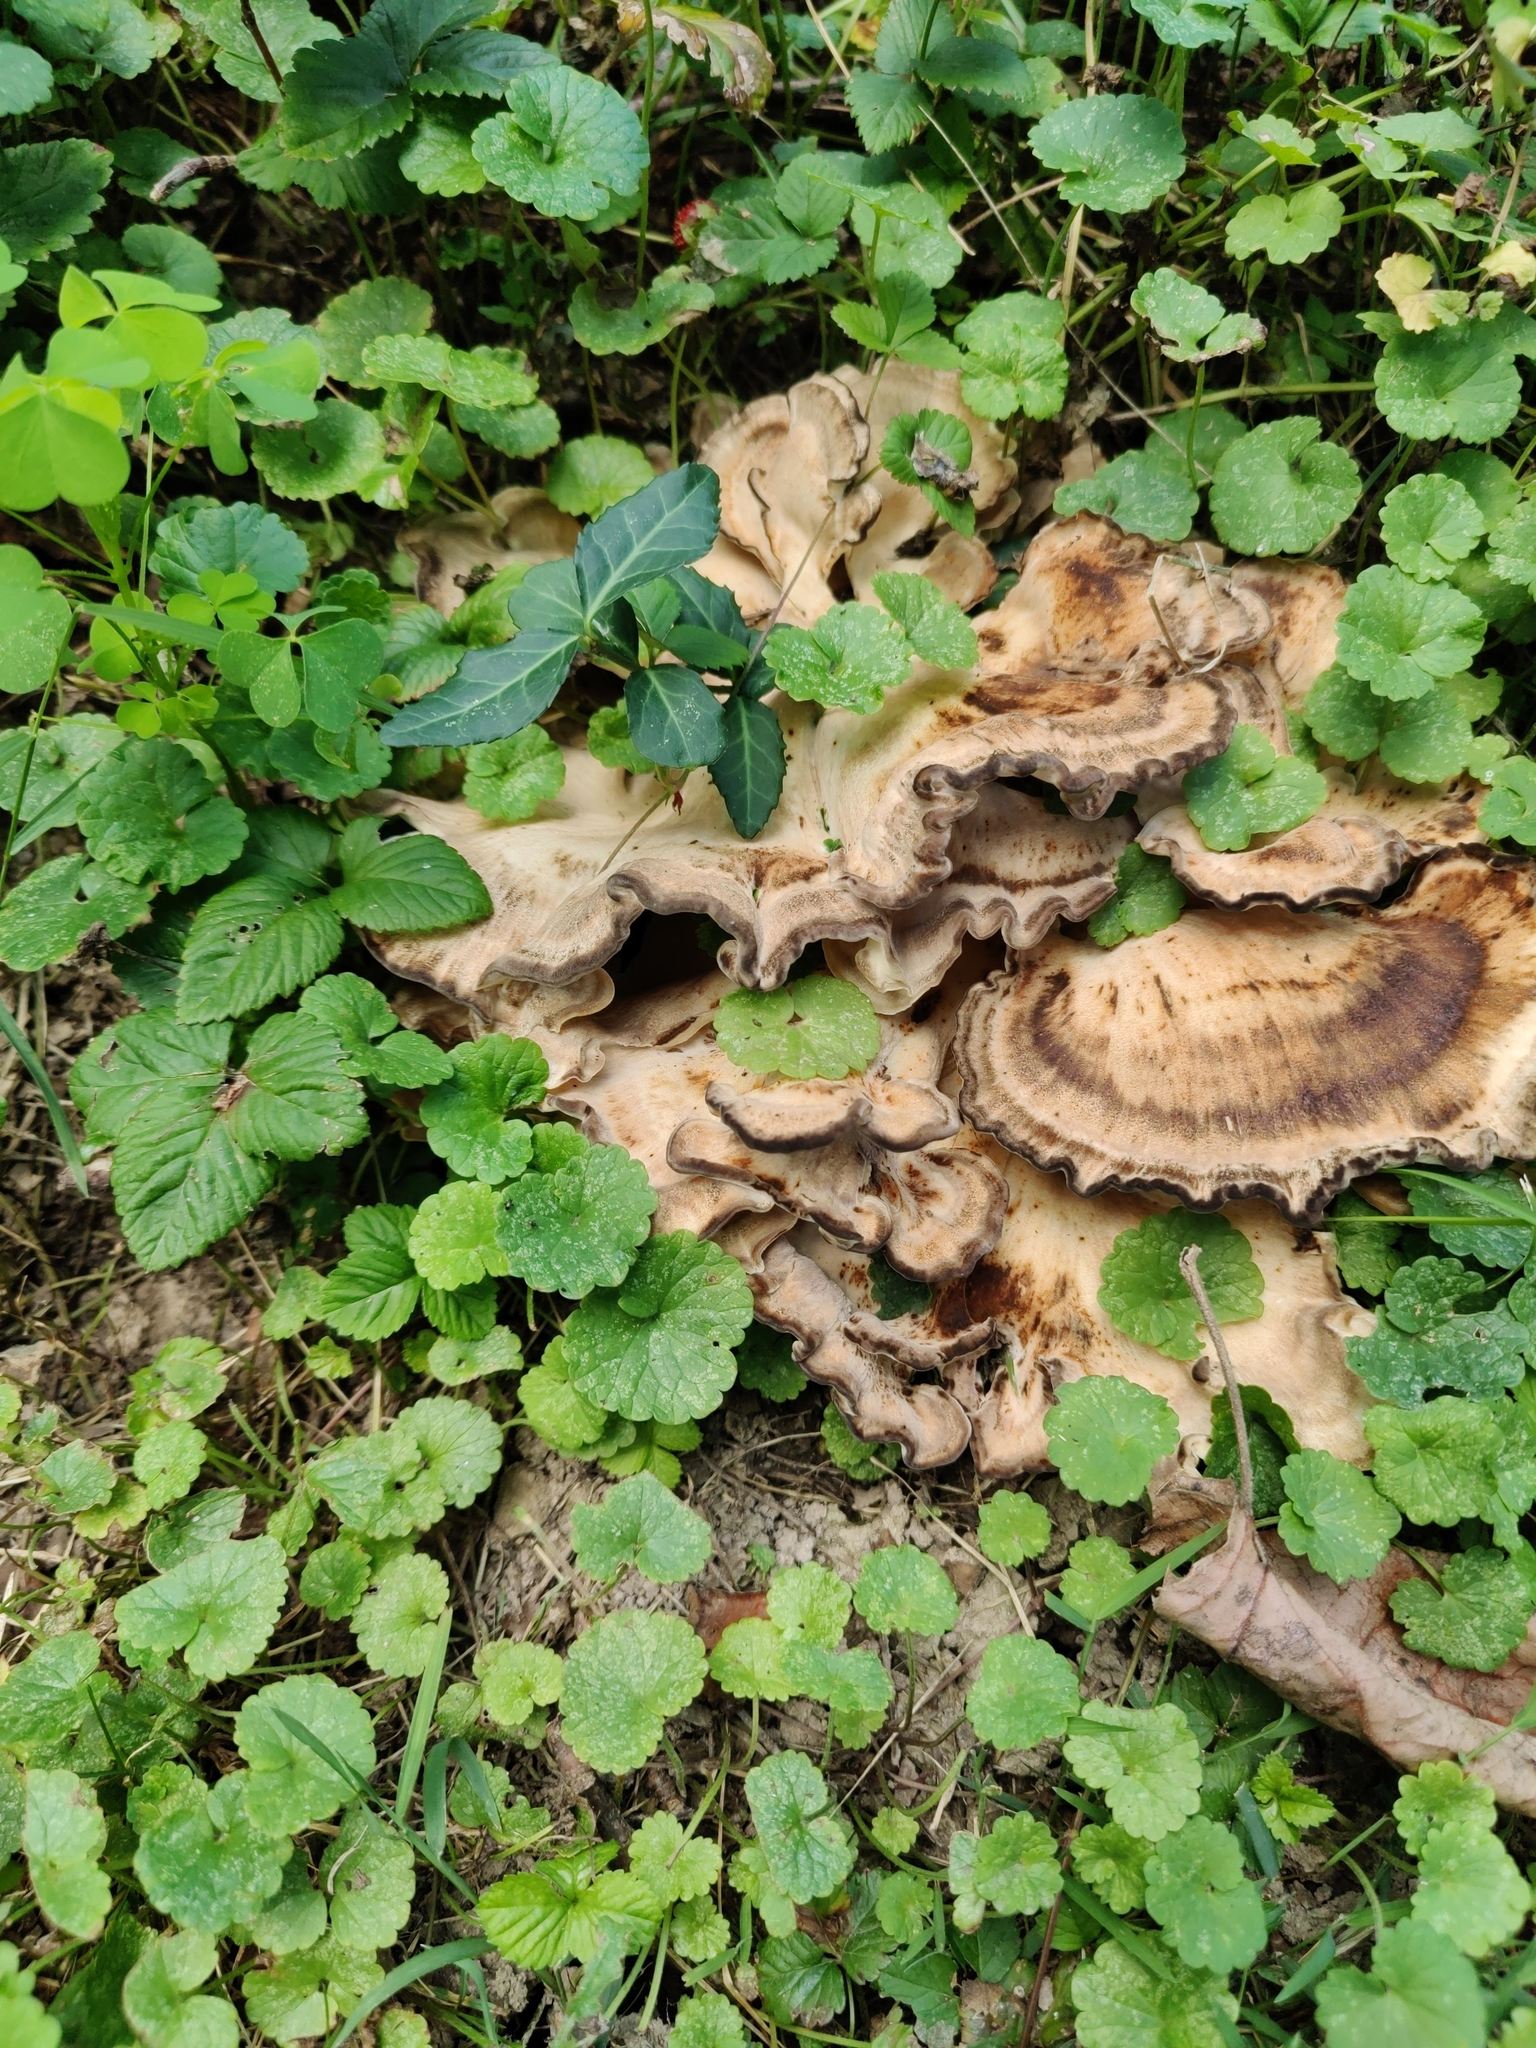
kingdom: Fungi
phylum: Basidiomycota
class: Agaricomycetes
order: Polyporales
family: Meripilaceae
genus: Meripilus
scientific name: Meripilus sumstinei
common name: Black-staining polypore
